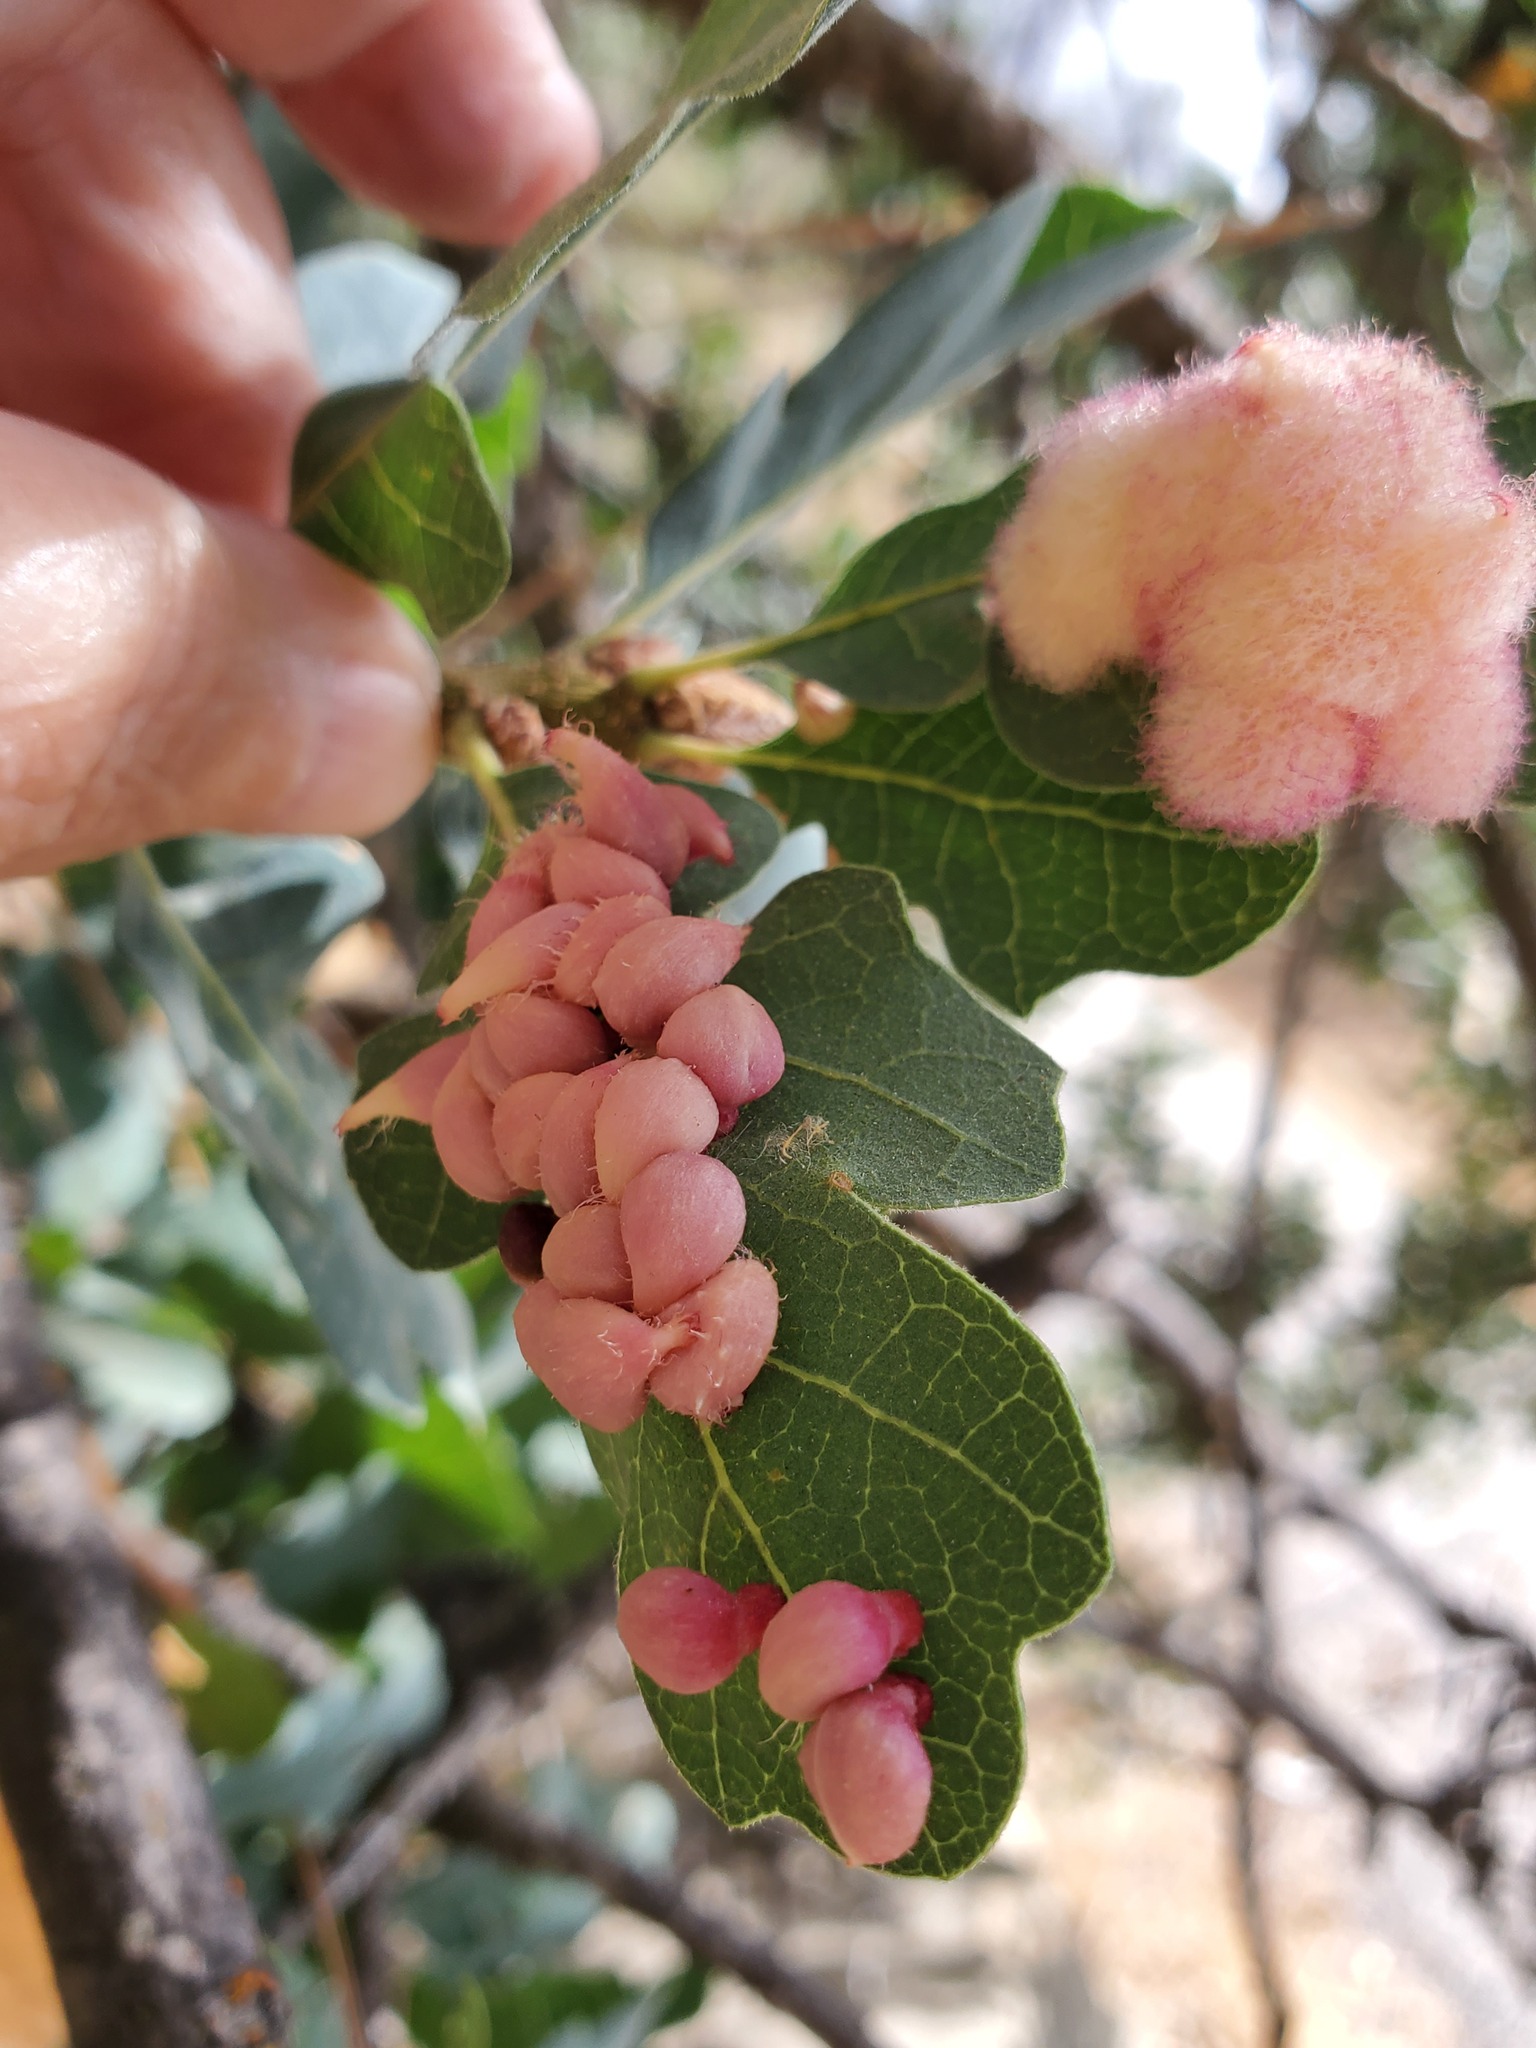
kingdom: Animalia
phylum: Arthropoda
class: Insecta
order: Hymenoptera
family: Cynipidae
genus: Andricus
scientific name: Andricus
